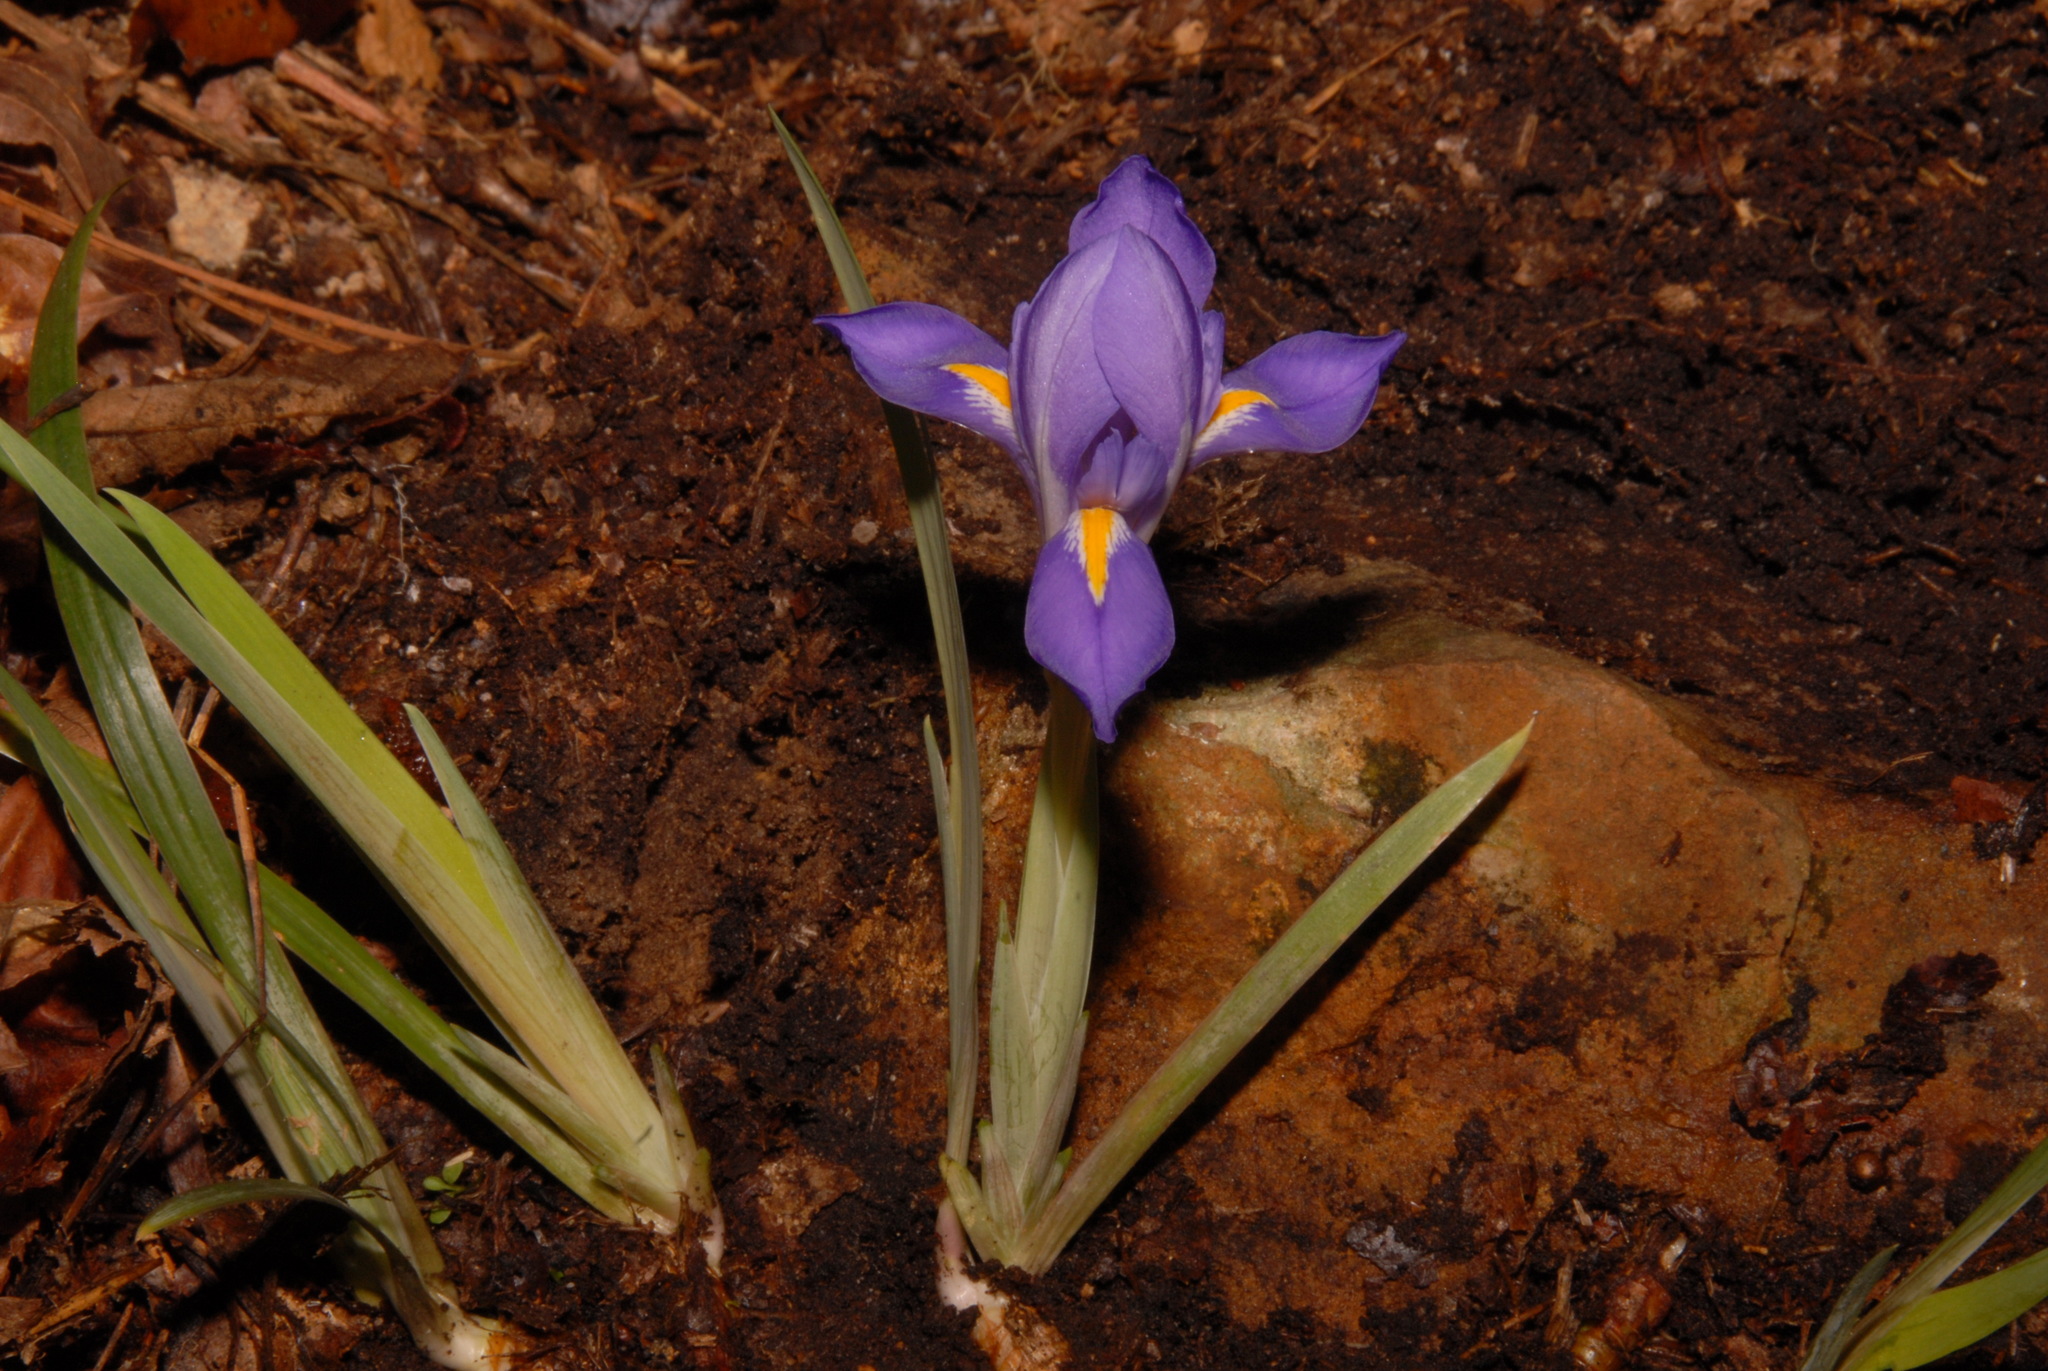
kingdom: Plantae
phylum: Tracheophyta
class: Liliopsida
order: Asparagales
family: Iridaceae
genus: Iris
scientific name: Iris verna
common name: Dwarf iris
